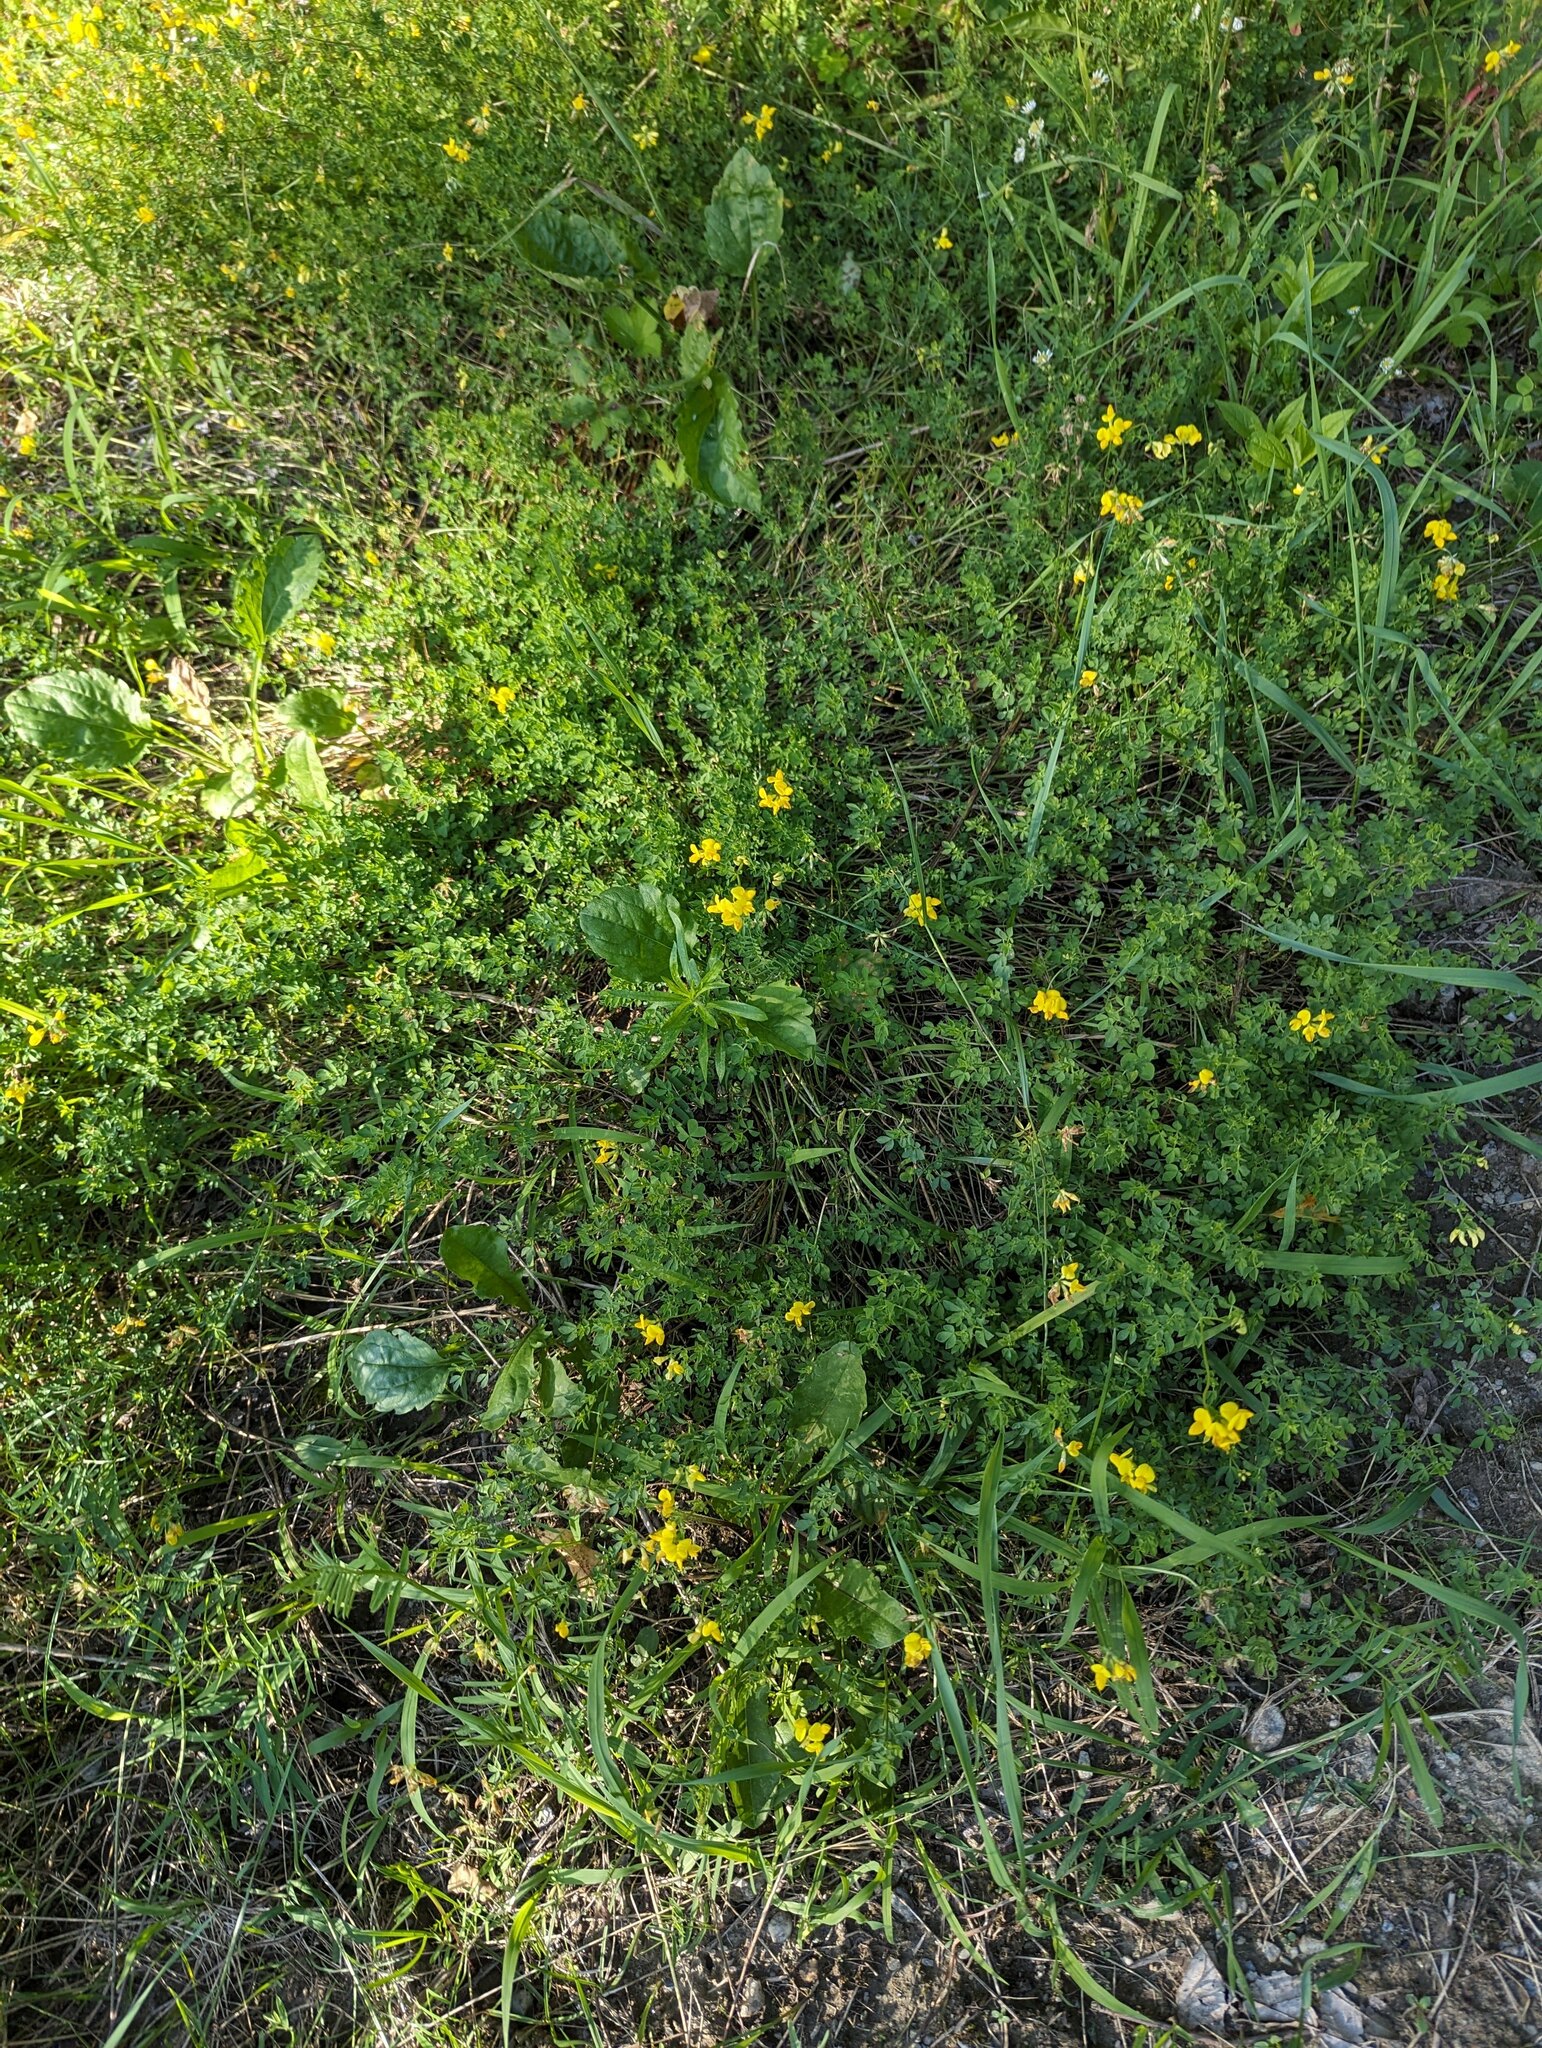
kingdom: Plantae
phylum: Tracheophyta
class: Magnoliopsida
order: Fabales
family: Fabaceae
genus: Lotus
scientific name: Lotus corniculatus
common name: Common bird's-foot-trefoil
